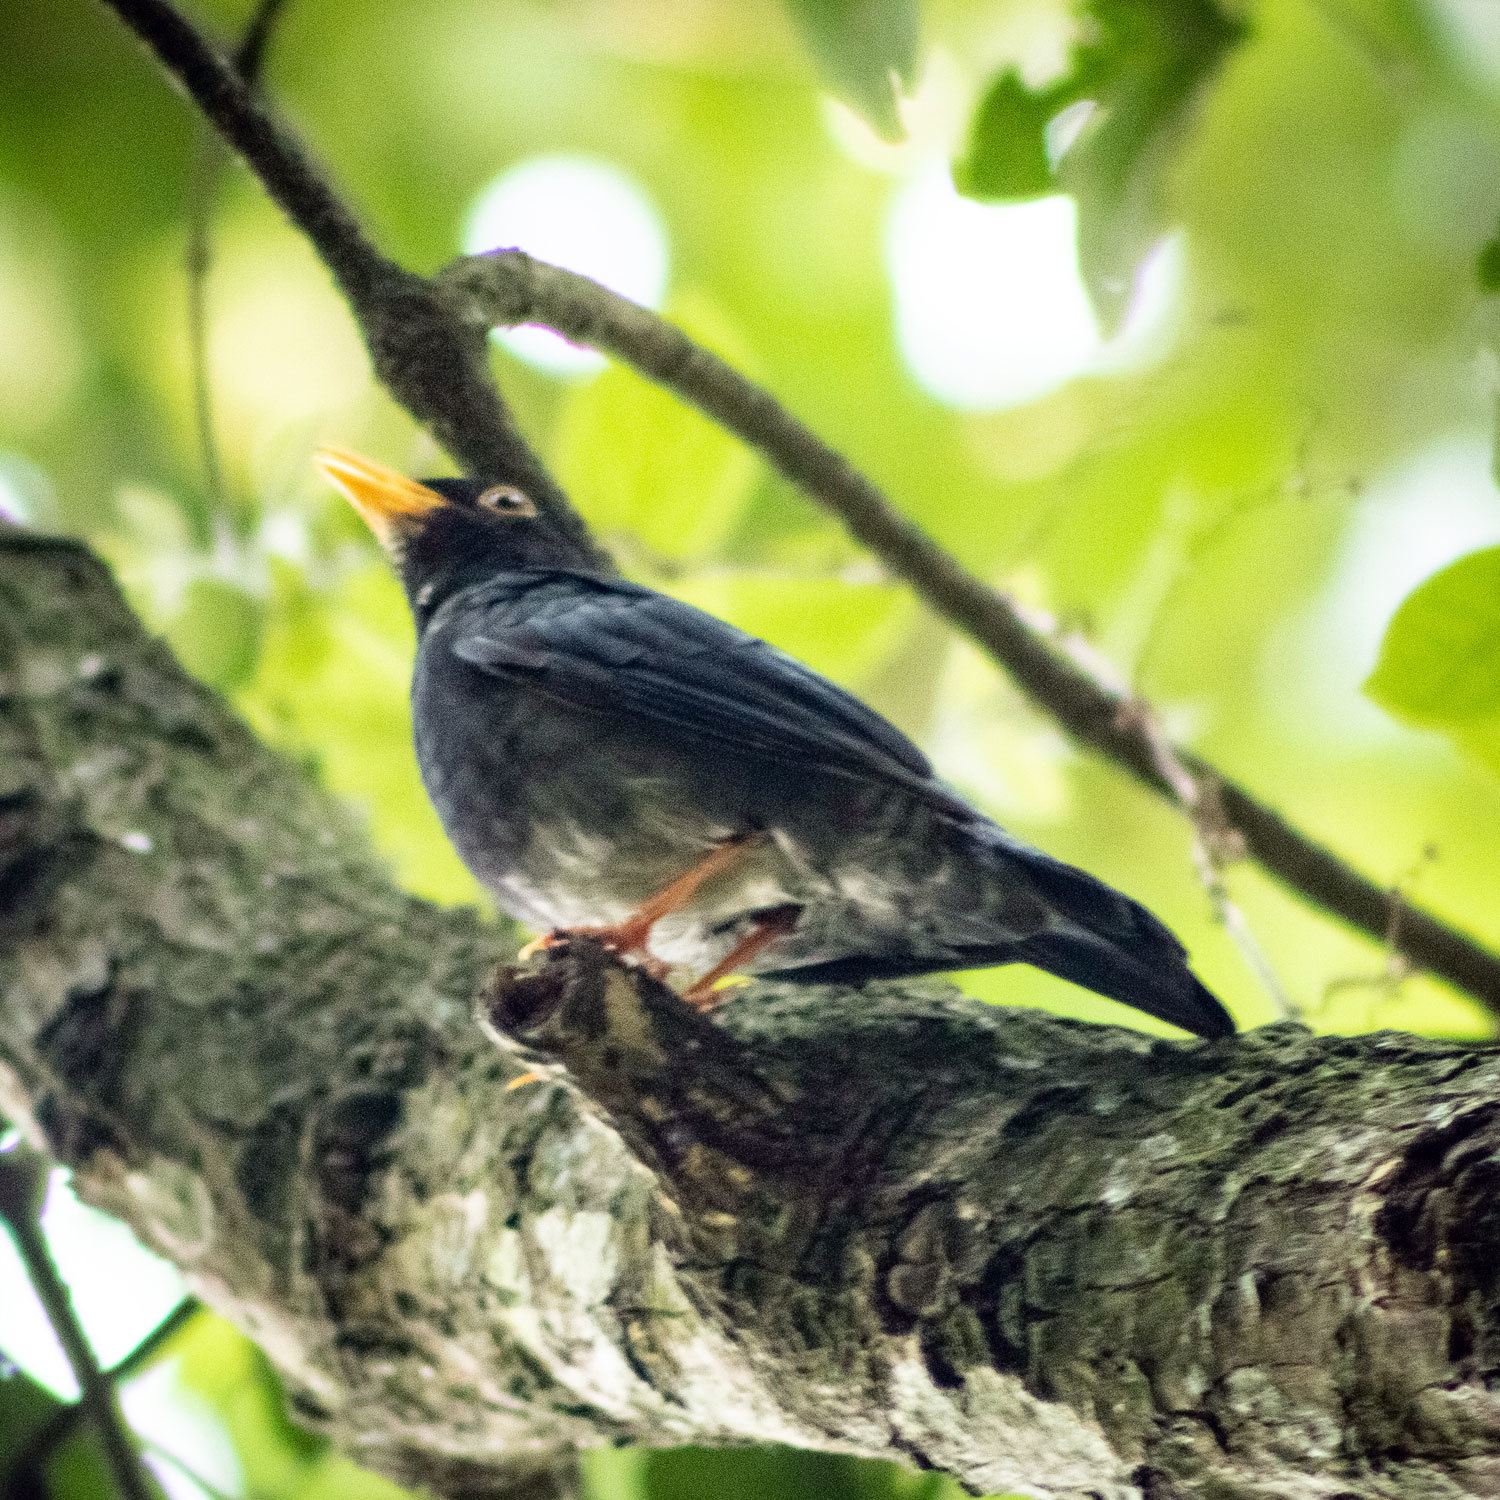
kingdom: Animalia
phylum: Chordata
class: Aves
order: Passeriformes
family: Turdidae
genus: Turdus
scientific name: Turdus flavipes
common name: Yellow-legged thrush
